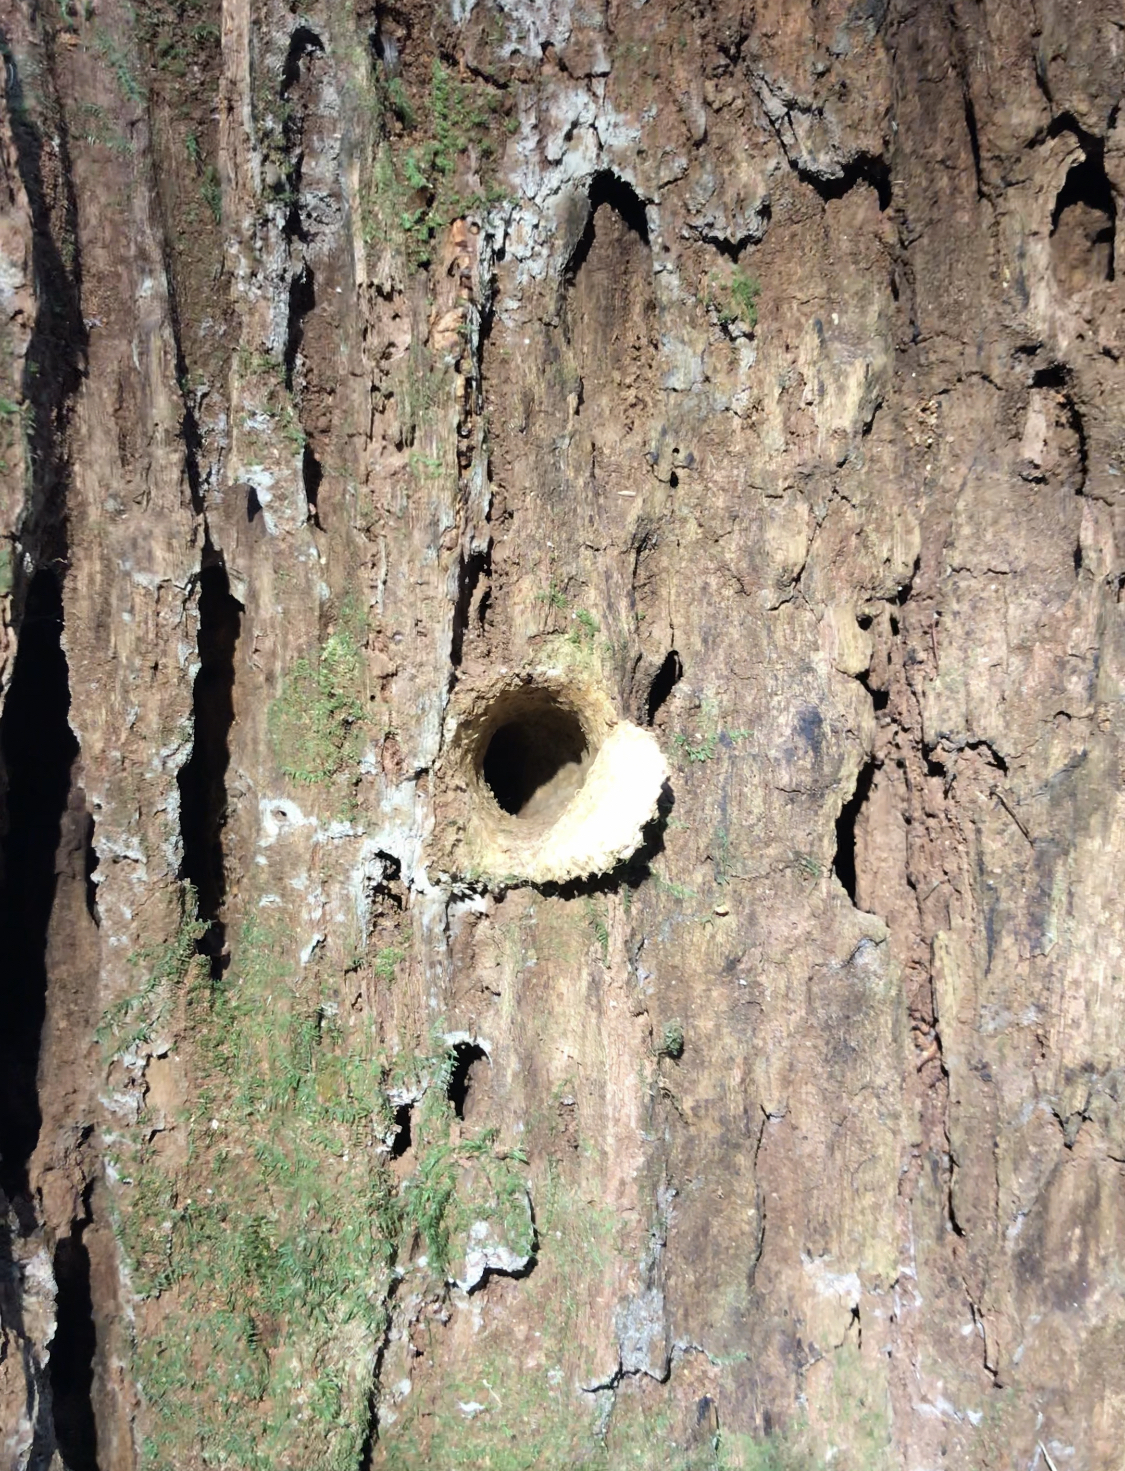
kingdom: Animalia
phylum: Arthropoda
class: Arachnida
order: Araneae
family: Idiopidae
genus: Cataxia
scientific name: Cataxia
